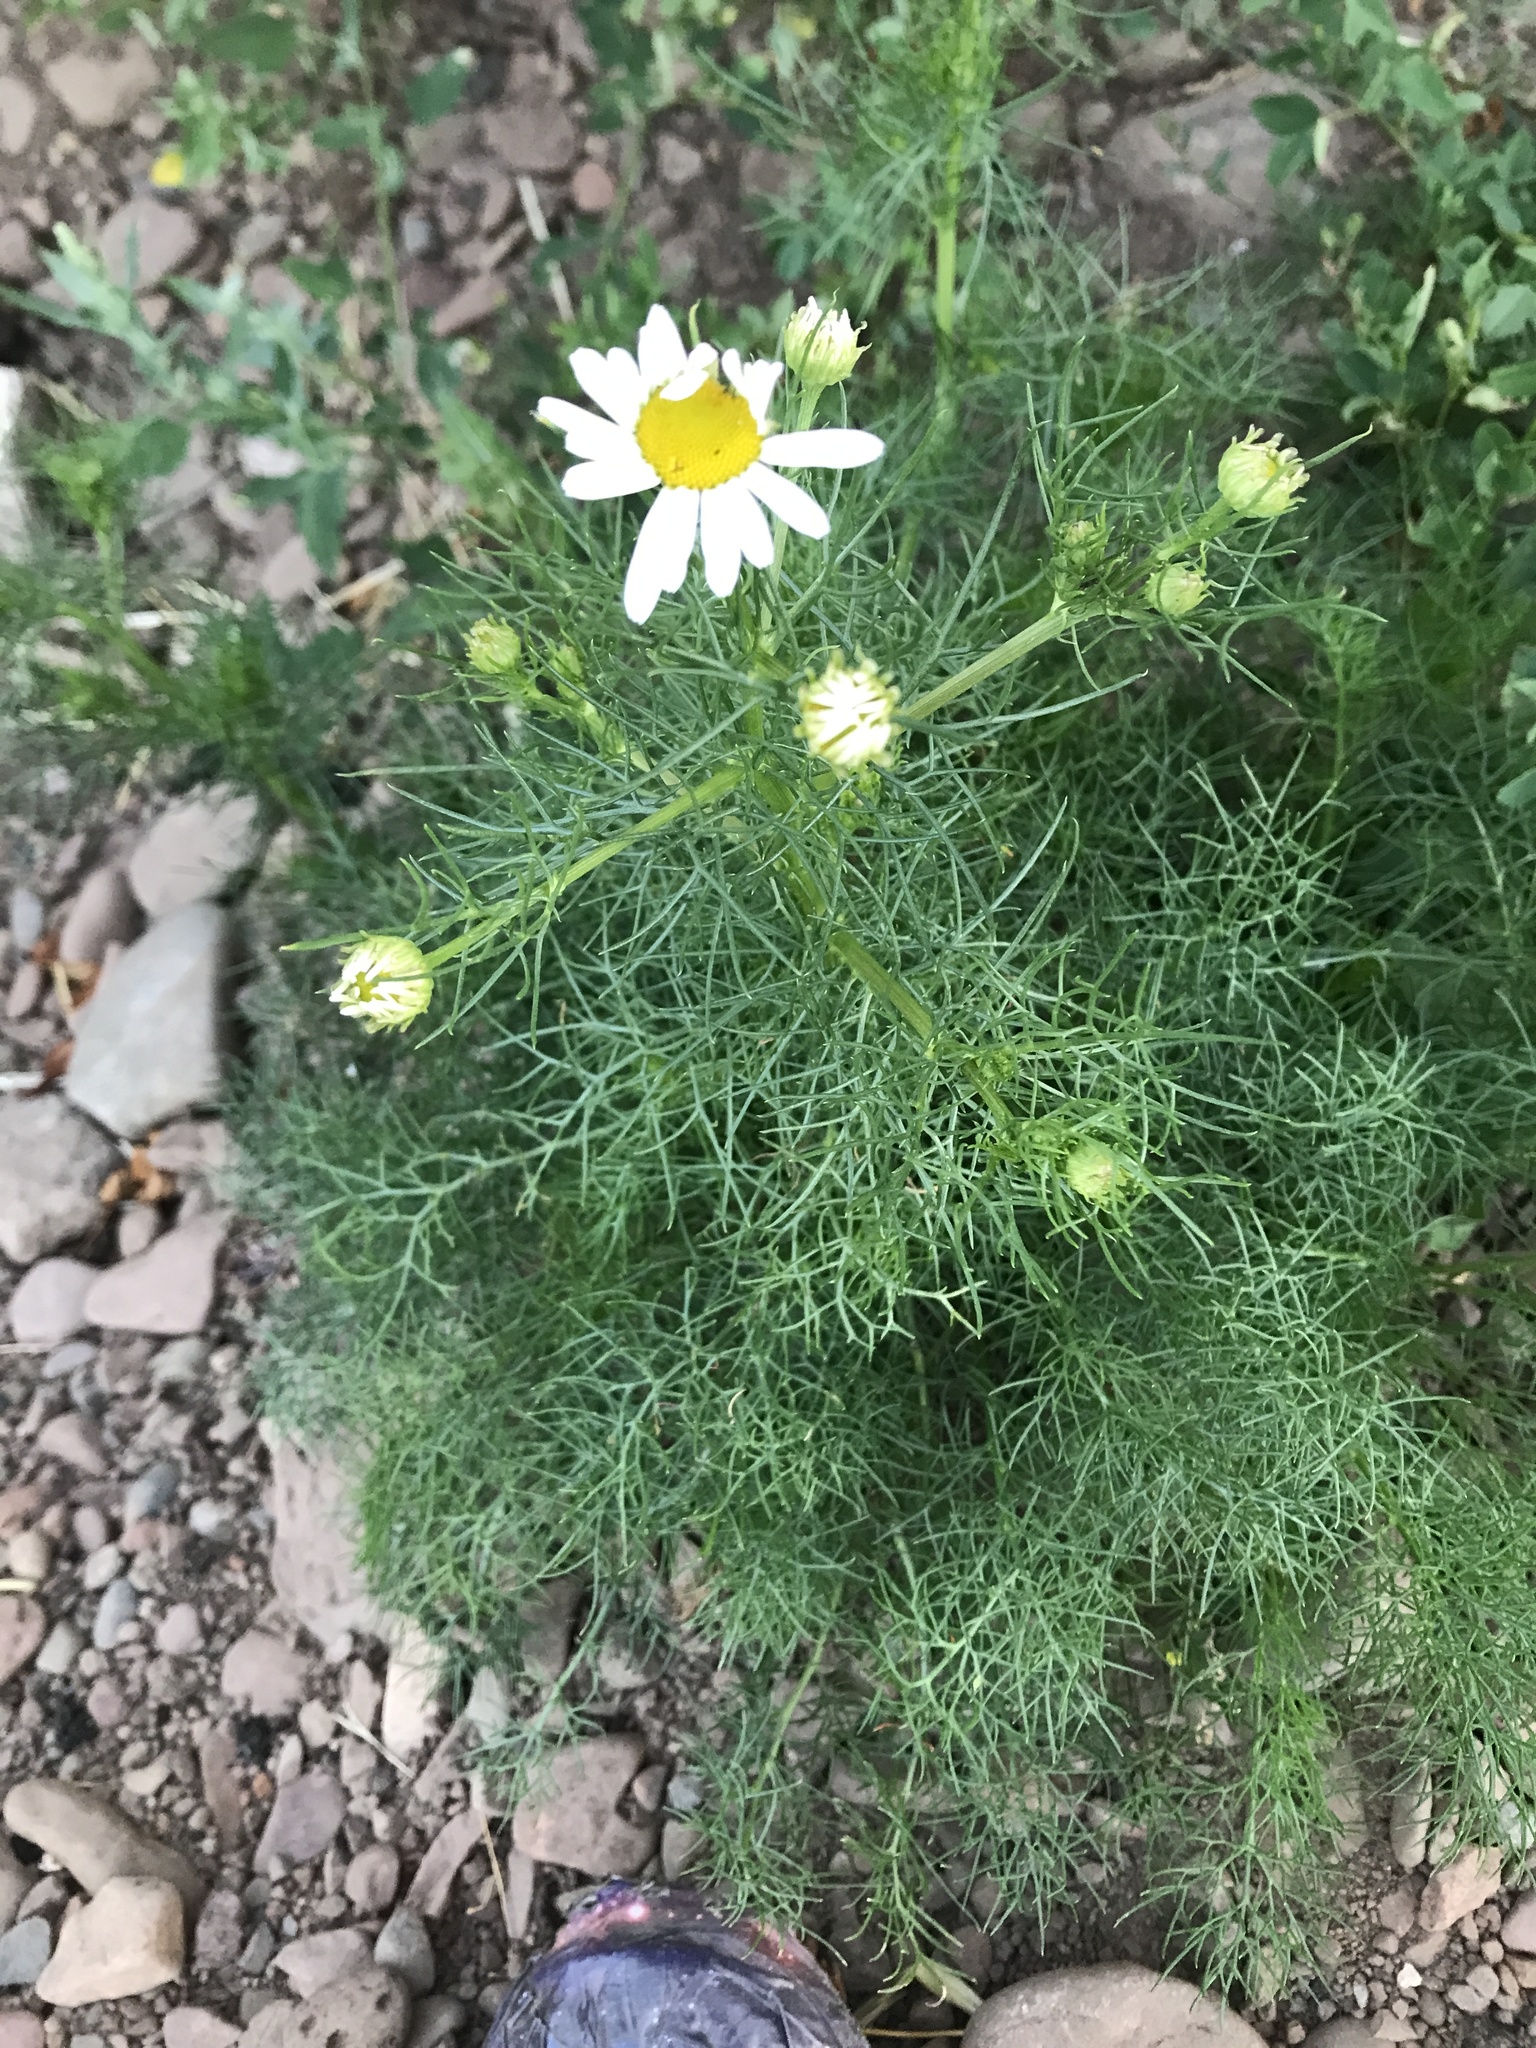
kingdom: Plantae
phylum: Tracheophyta
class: Magnoliopsida
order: Asterales
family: Asteraceae
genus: Tripleurospermum
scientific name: Tripleurospermum inodorum
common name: Scentless mayweed
